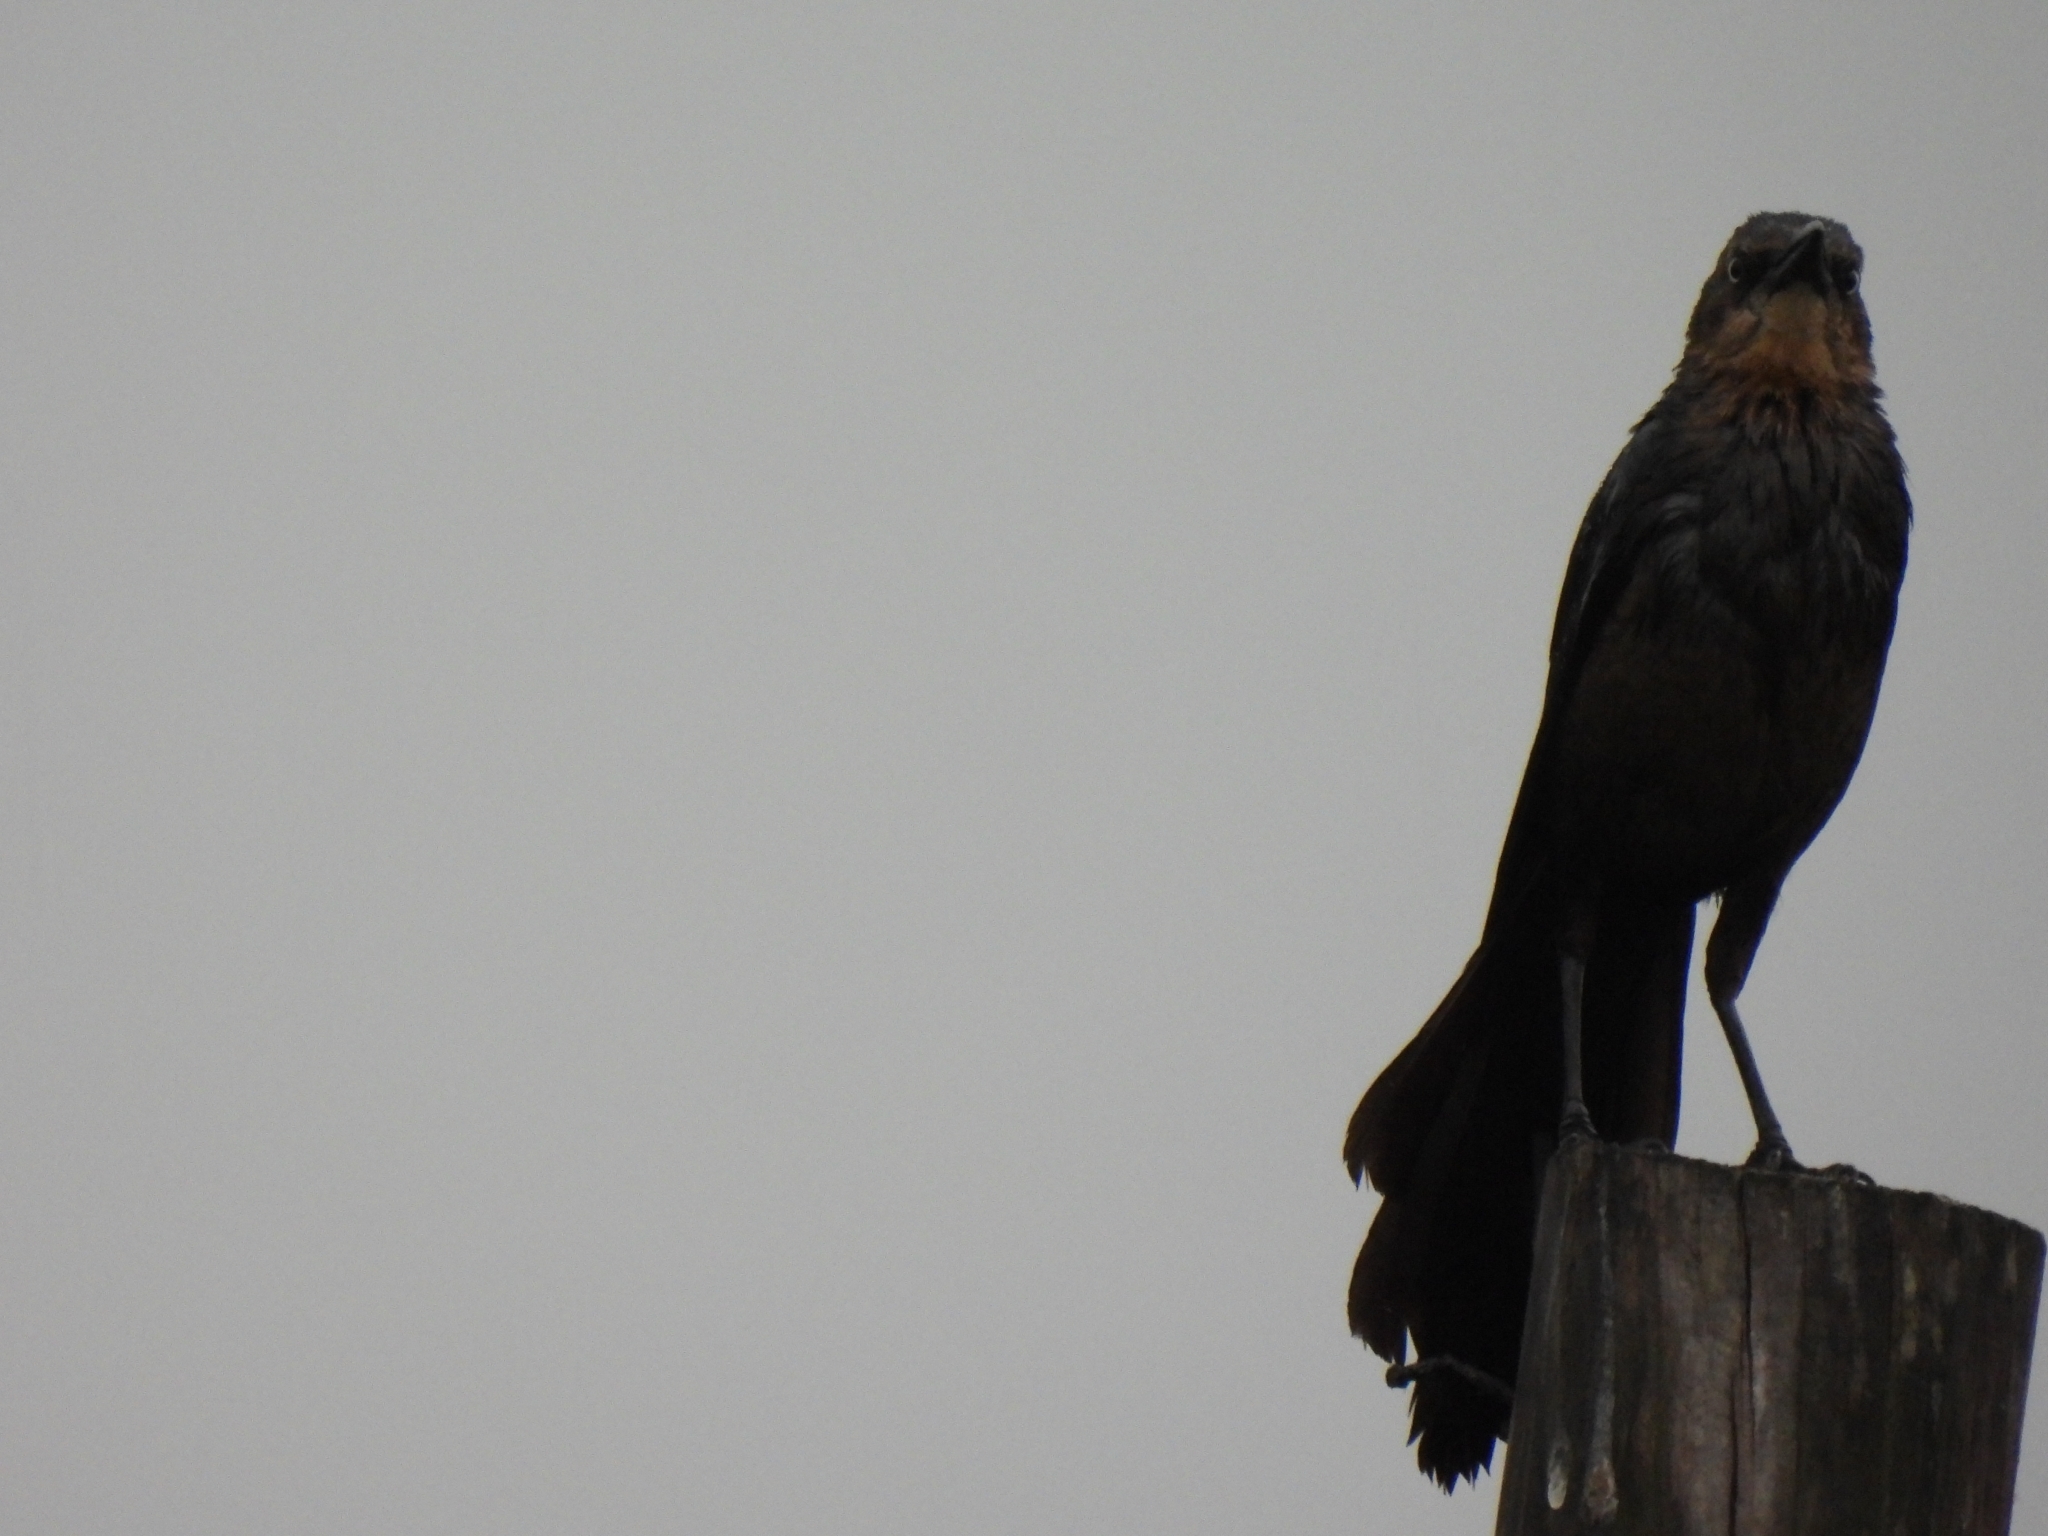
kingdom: Animalia
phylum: Chordata
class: Aves
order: Passeriformes
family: Icteridae
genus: Quiscalus
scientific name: Quiscalus mexicanus
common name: Great-tailed grackle
